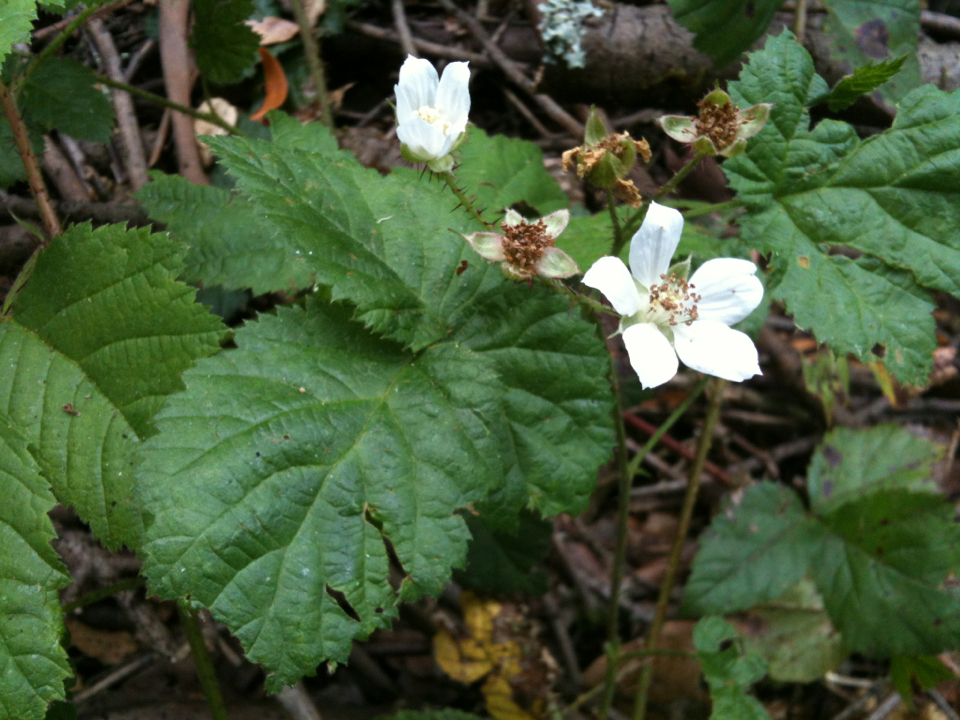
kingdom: Plantae
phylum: Tracheophyta
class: Magnoliopsida
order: Rosales
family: Rosaceae
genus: Rubus
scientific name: Rubus ursinus
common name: Pacific blackberry
